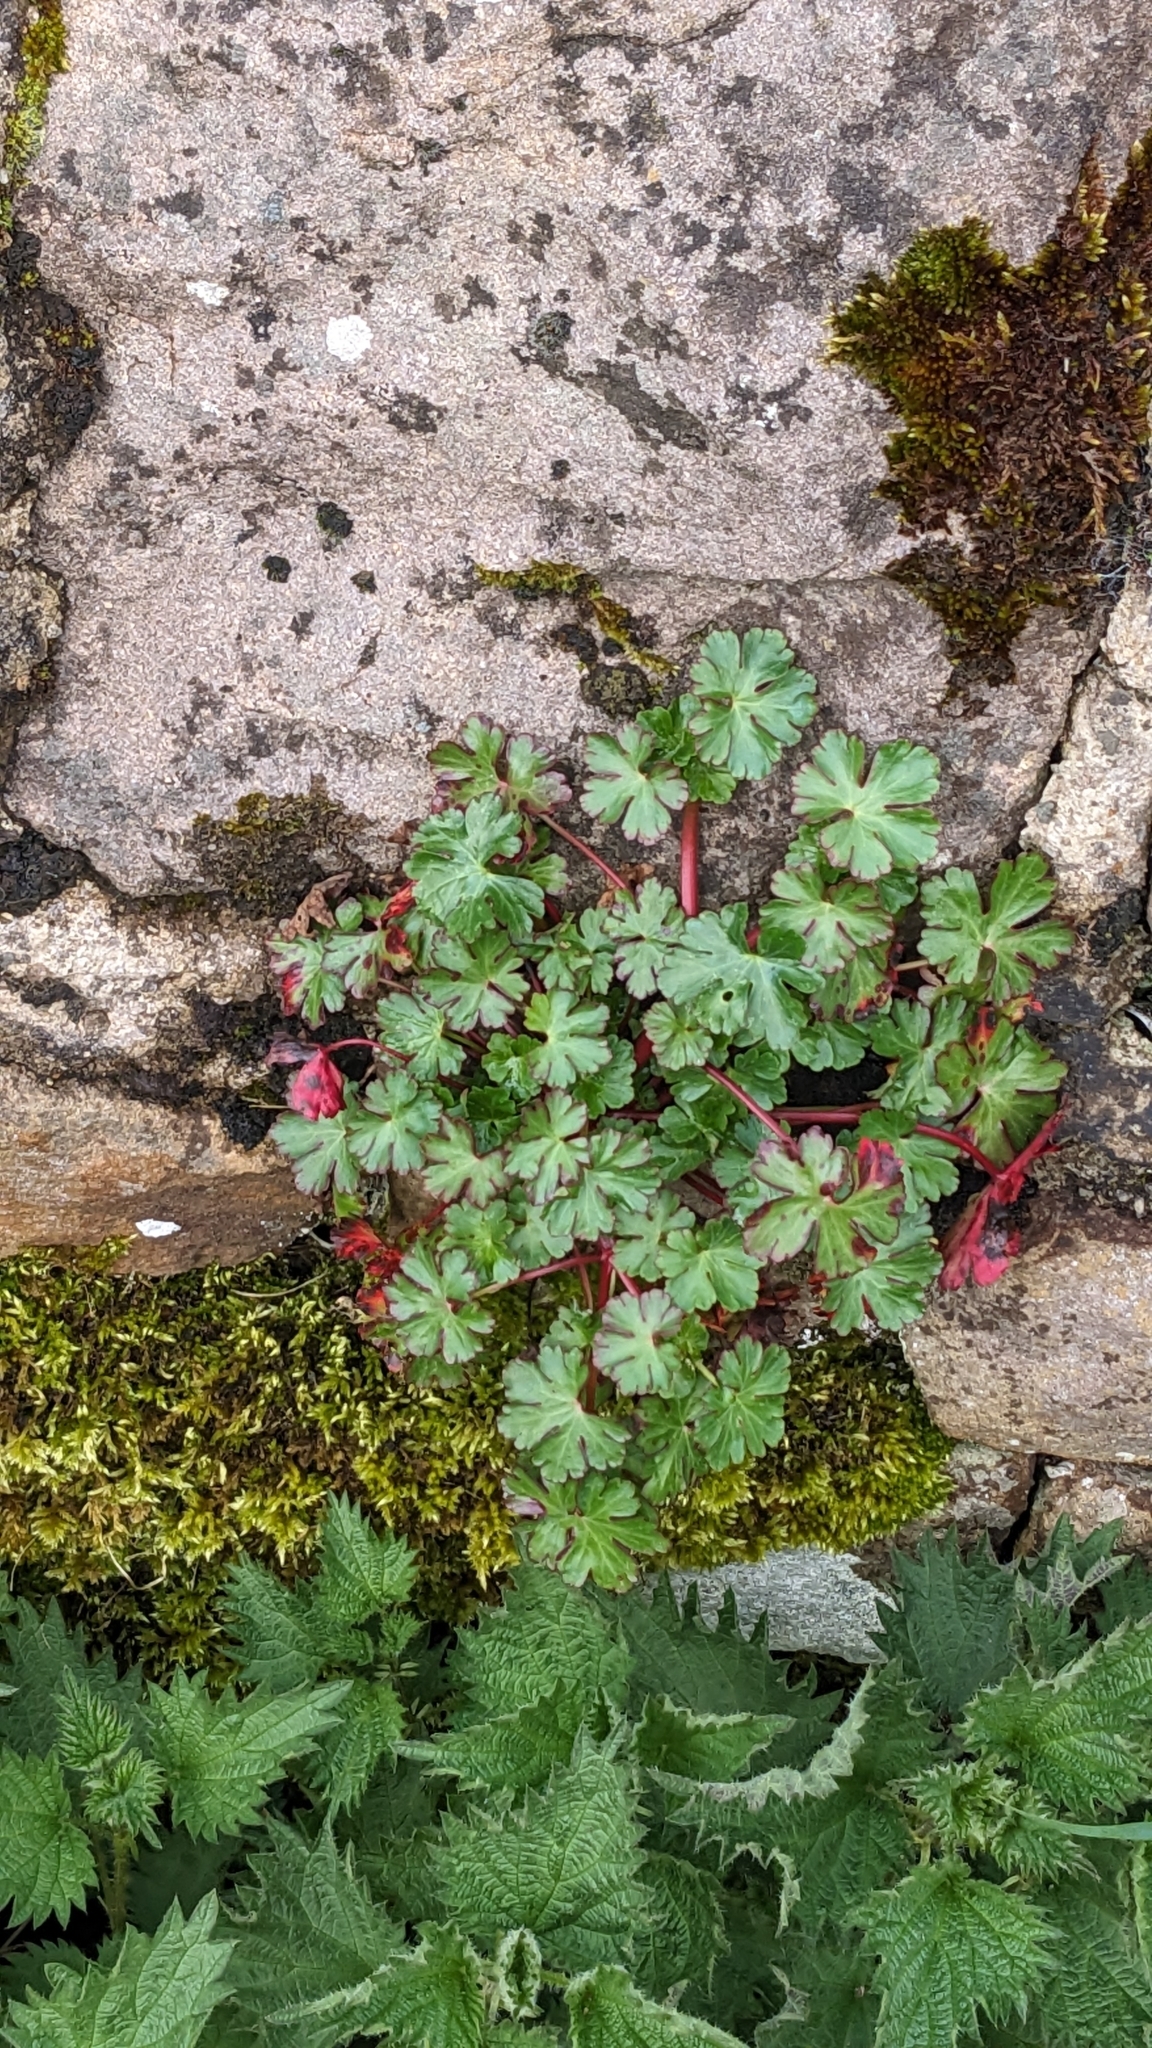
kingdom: Plantae
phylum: Tracheophyta
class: Magnoliopsida
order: Geraniales
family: Geraniaceae
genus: Geranium
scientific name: Geranium lucidum
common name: Shining crane's-bill
